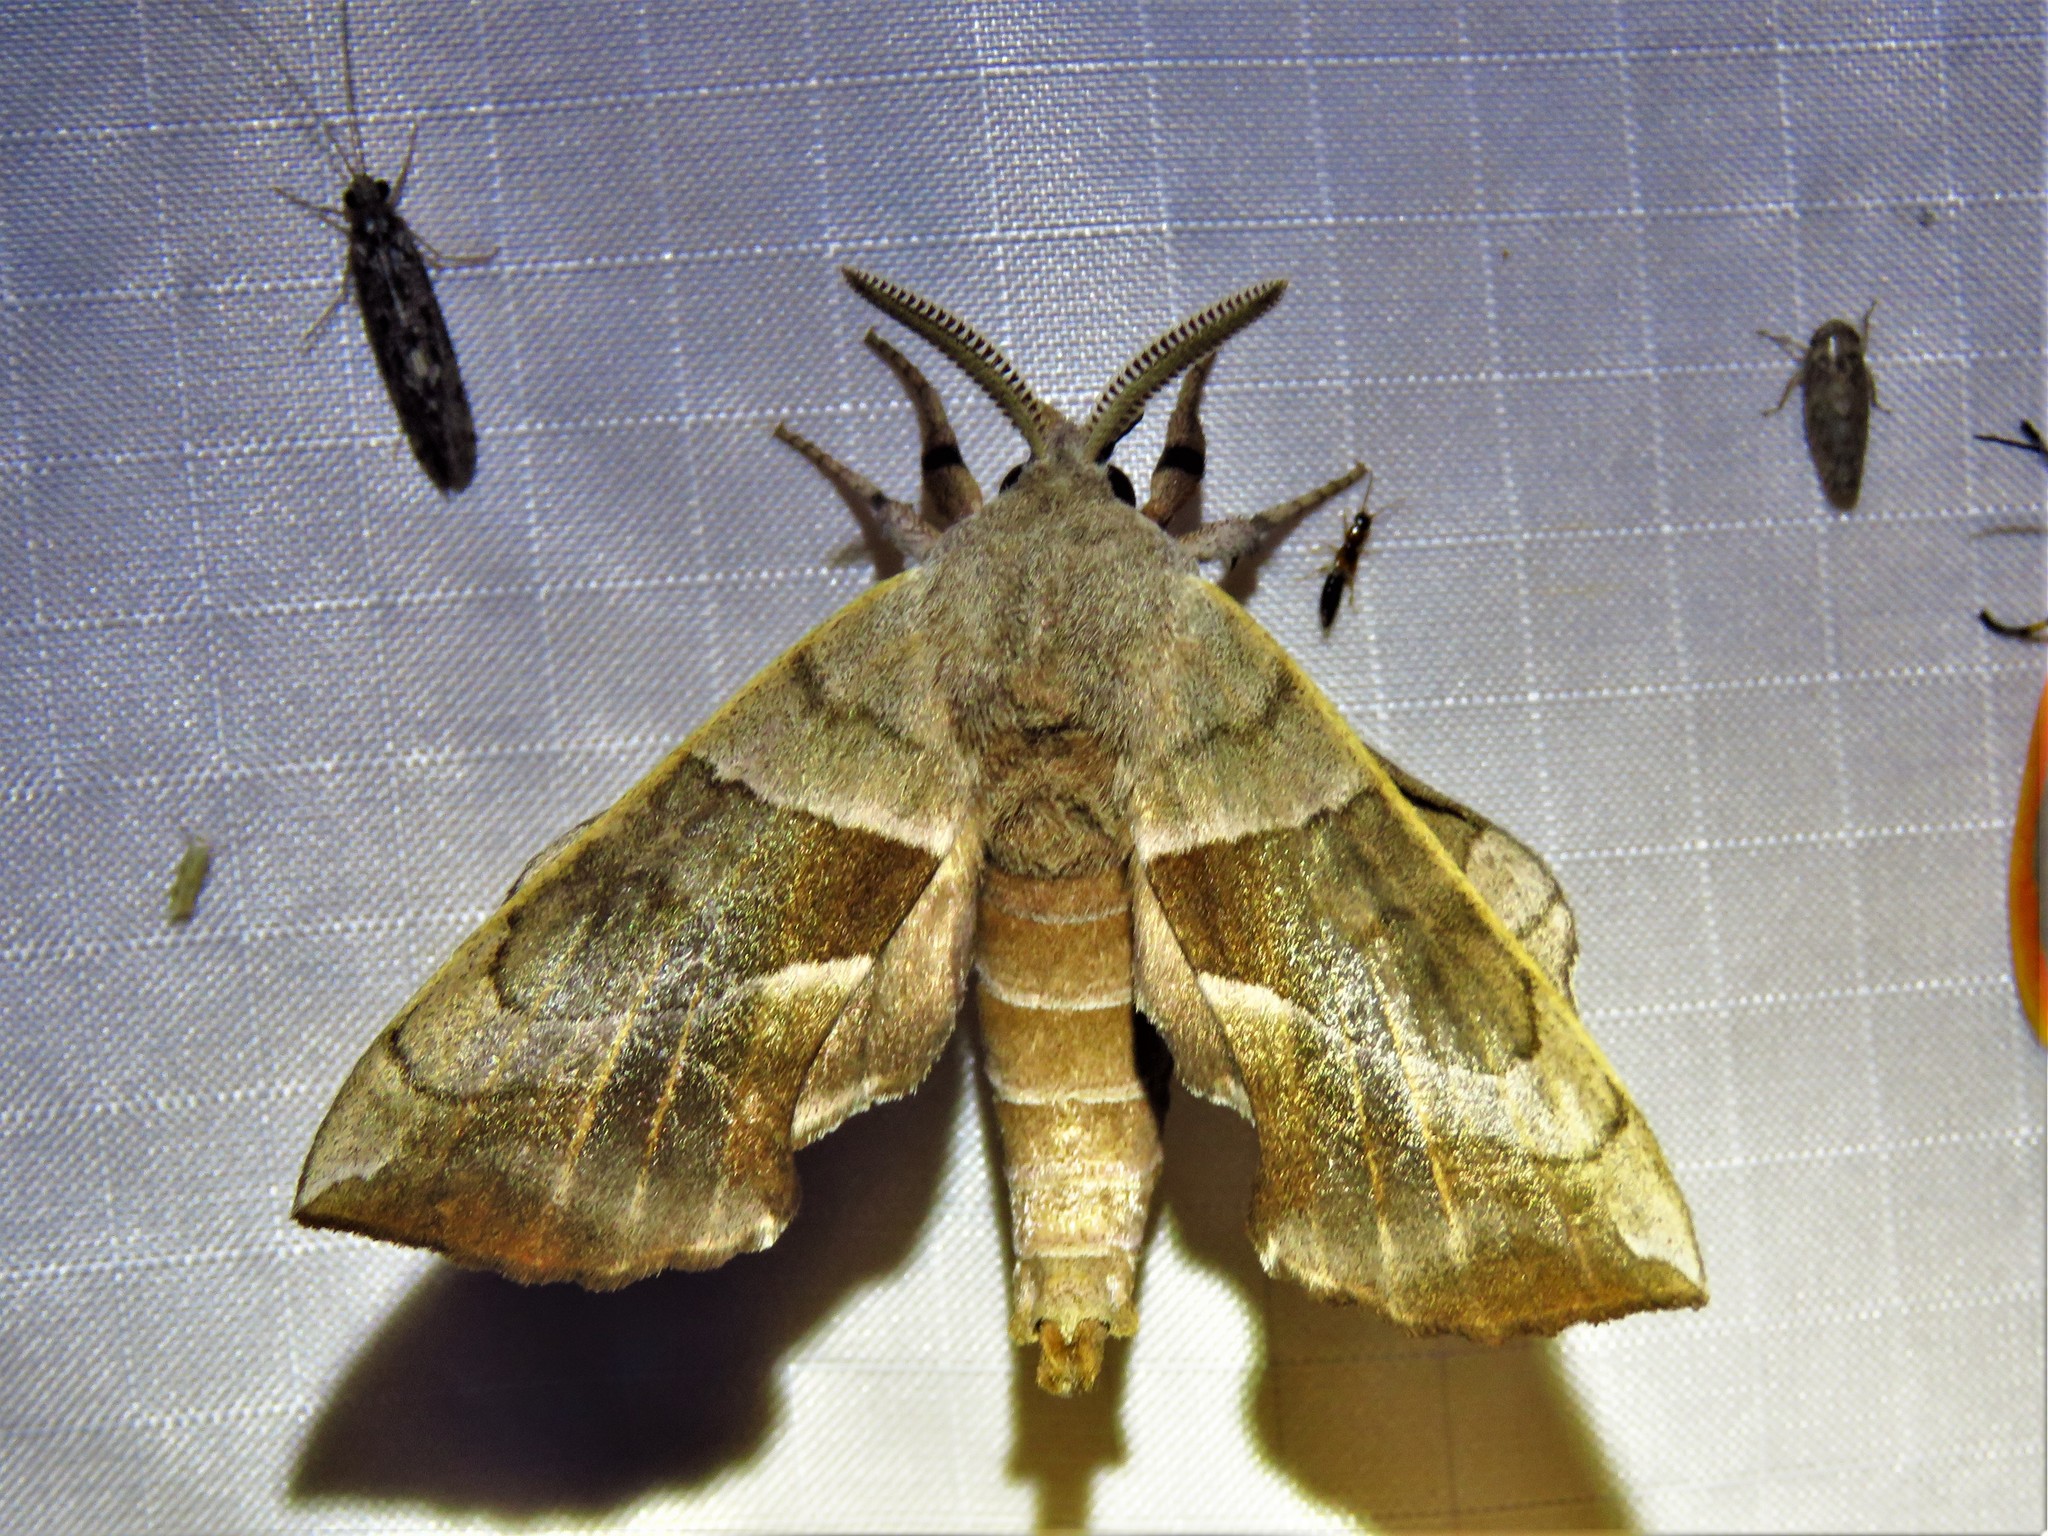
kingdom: Animalia
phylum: Arthropoda
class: Insecta
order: Lepidoptera
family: Sphingidae
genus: Amorpha
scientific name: Amorpha juglandis
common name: Walnut sphinx
